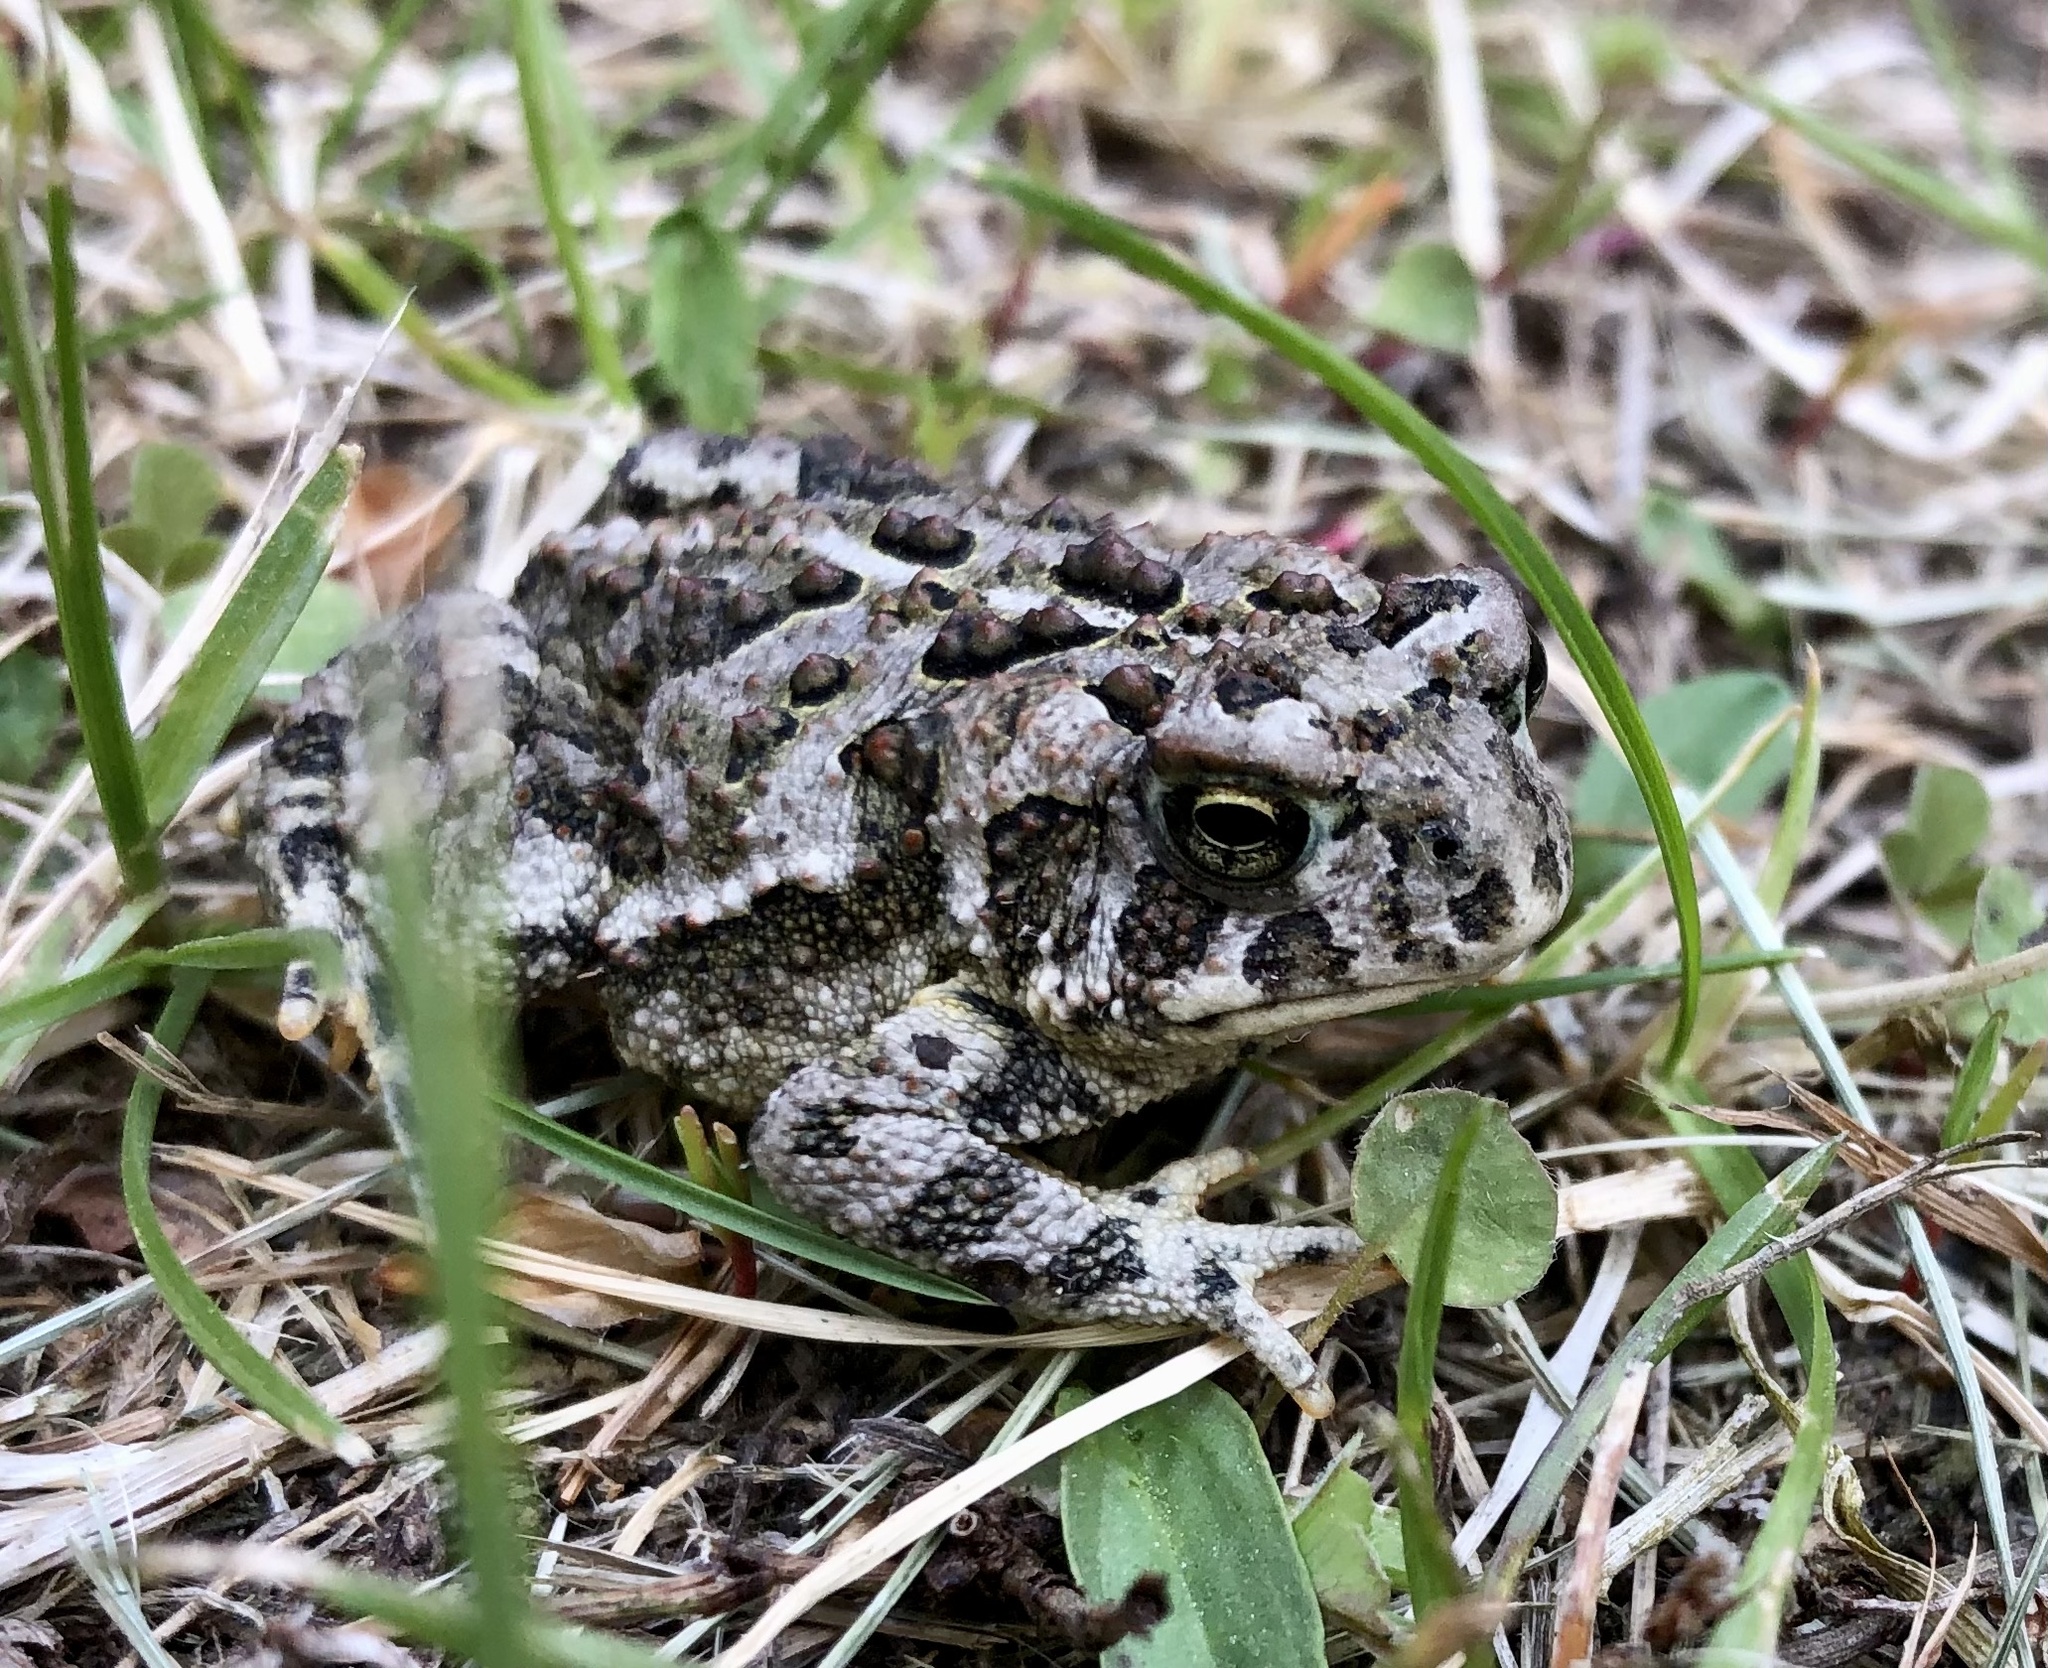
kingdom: Animalia
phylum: Chordata
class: Amphibia
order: Anura
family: Bufonidae
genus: Anaxyrus
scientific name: Anaxyrus hemiophrys
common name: Canadian toad
